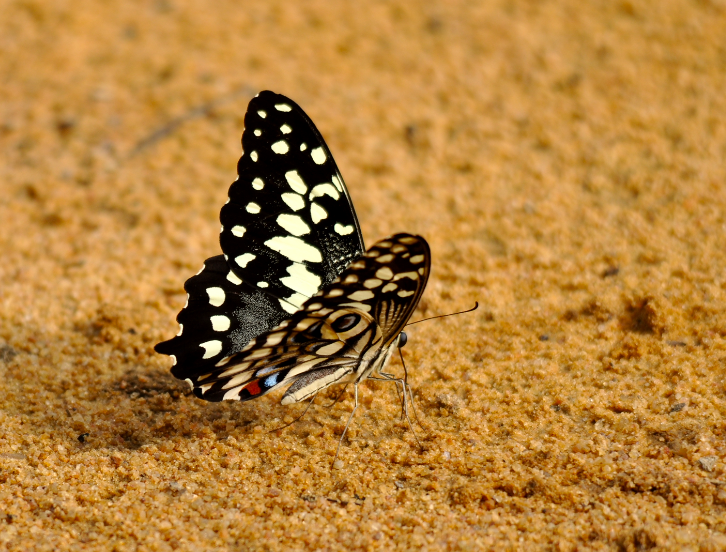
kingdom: Animalia
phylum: Arthropoda
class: Insecta
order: Lepidoptera
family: Papilionidae
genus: Papilio
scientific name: Papilio erithonioides
